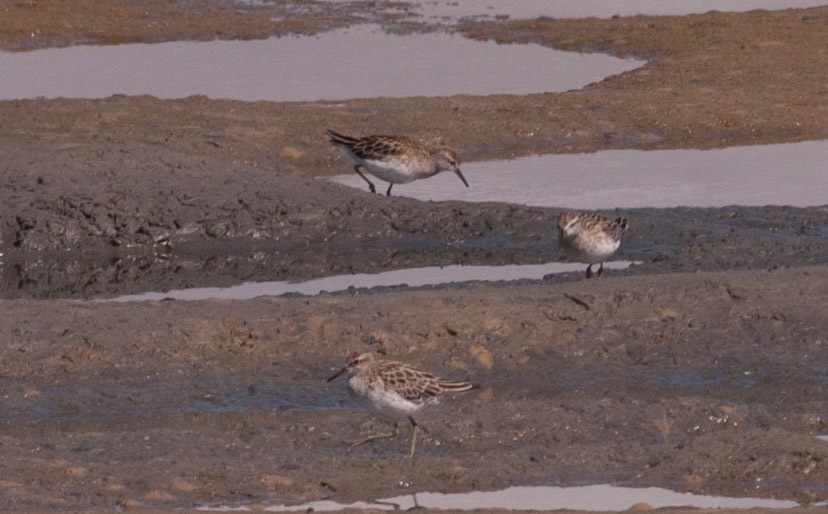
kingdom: Animalia
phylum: Chordata
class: Aves
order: Charadriiformes
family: Scolopacidae
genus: Calidris
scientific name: Calidris acuminata
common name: Sharp-tailed sandpiper
